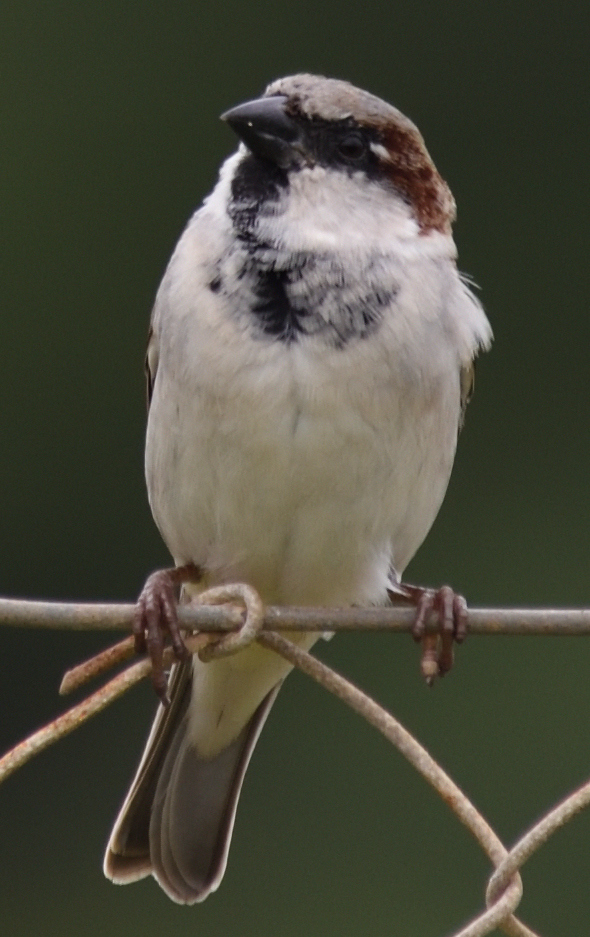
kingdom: Animalia
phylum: Chordata
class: Aves
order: Passeriformes
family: Passeridae
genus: Passer
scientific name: Passer domesticus
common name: House sparrow
